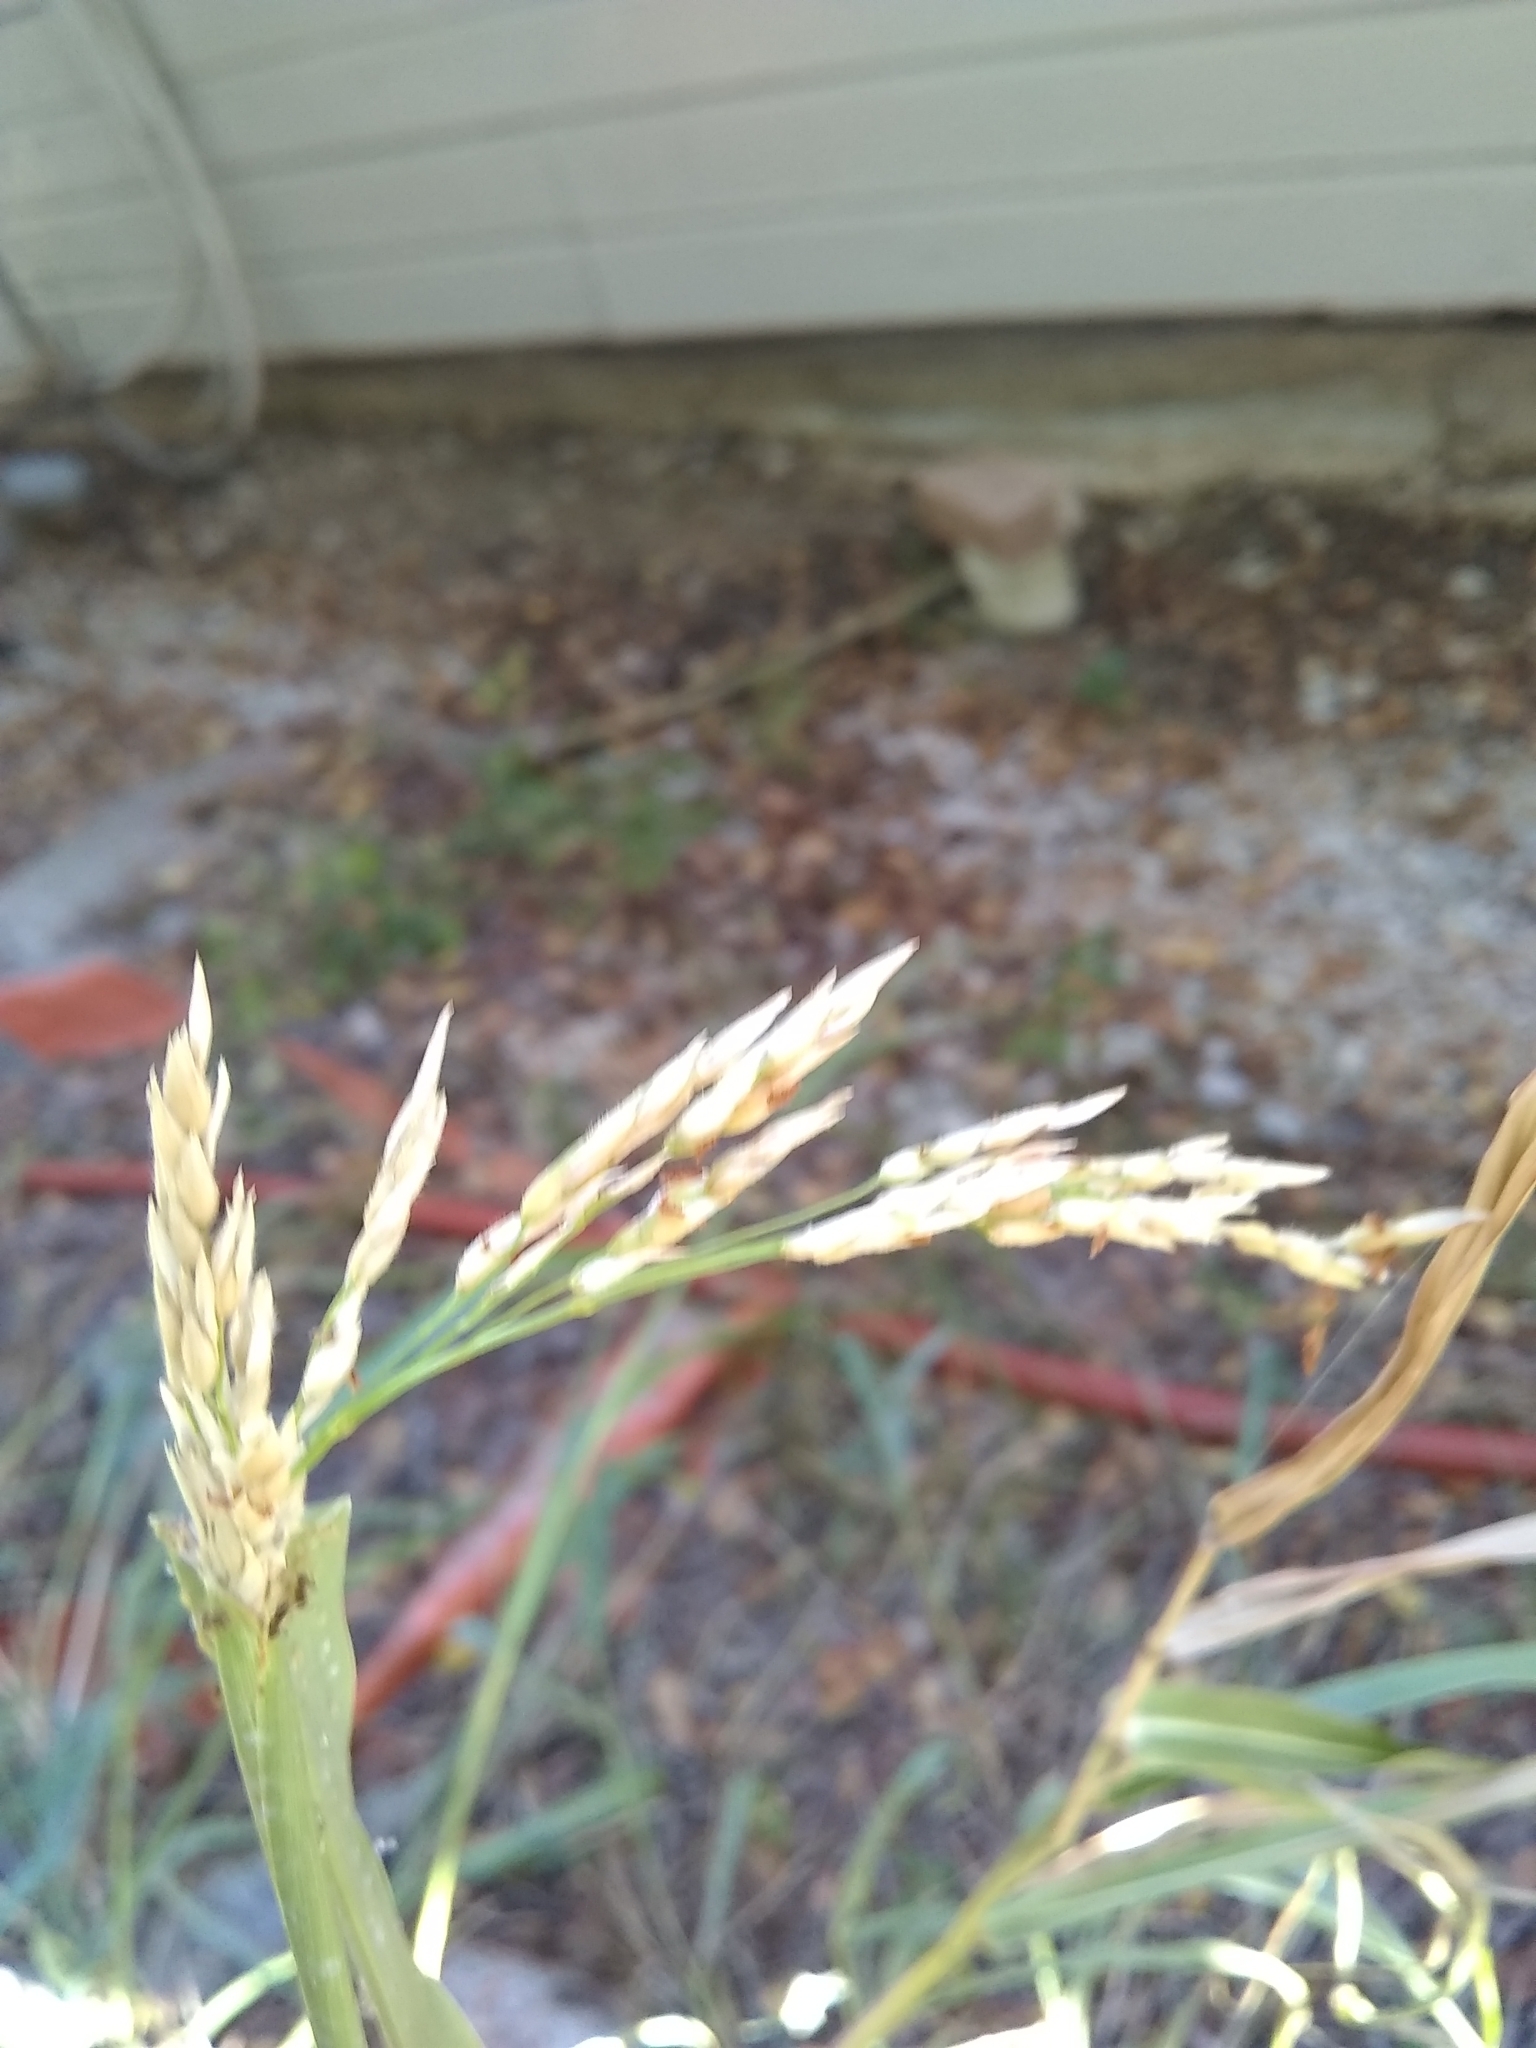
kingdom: Plantae
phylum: Tracheophyta
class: Liliopsida
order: Poales
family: Poaceae
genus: Sorghum
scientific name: Sorghum halepense
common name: Johnson-grass
